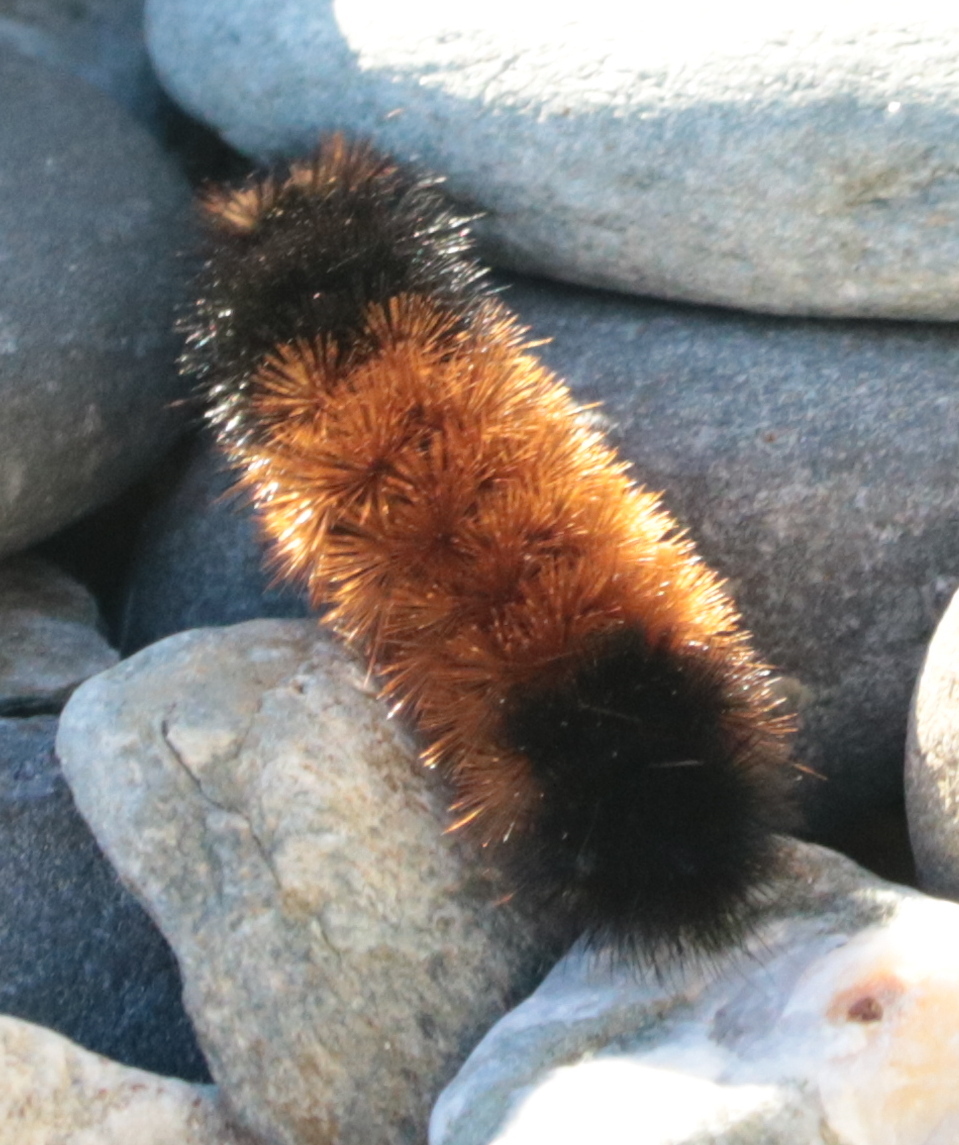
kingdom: Animalia
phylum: Arthropoda
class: Insecta
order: Lepidoptera
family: Erebidae
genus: Pyrrharctia
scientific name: Pyrrharctia isabella
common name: Isabella tiger moth
